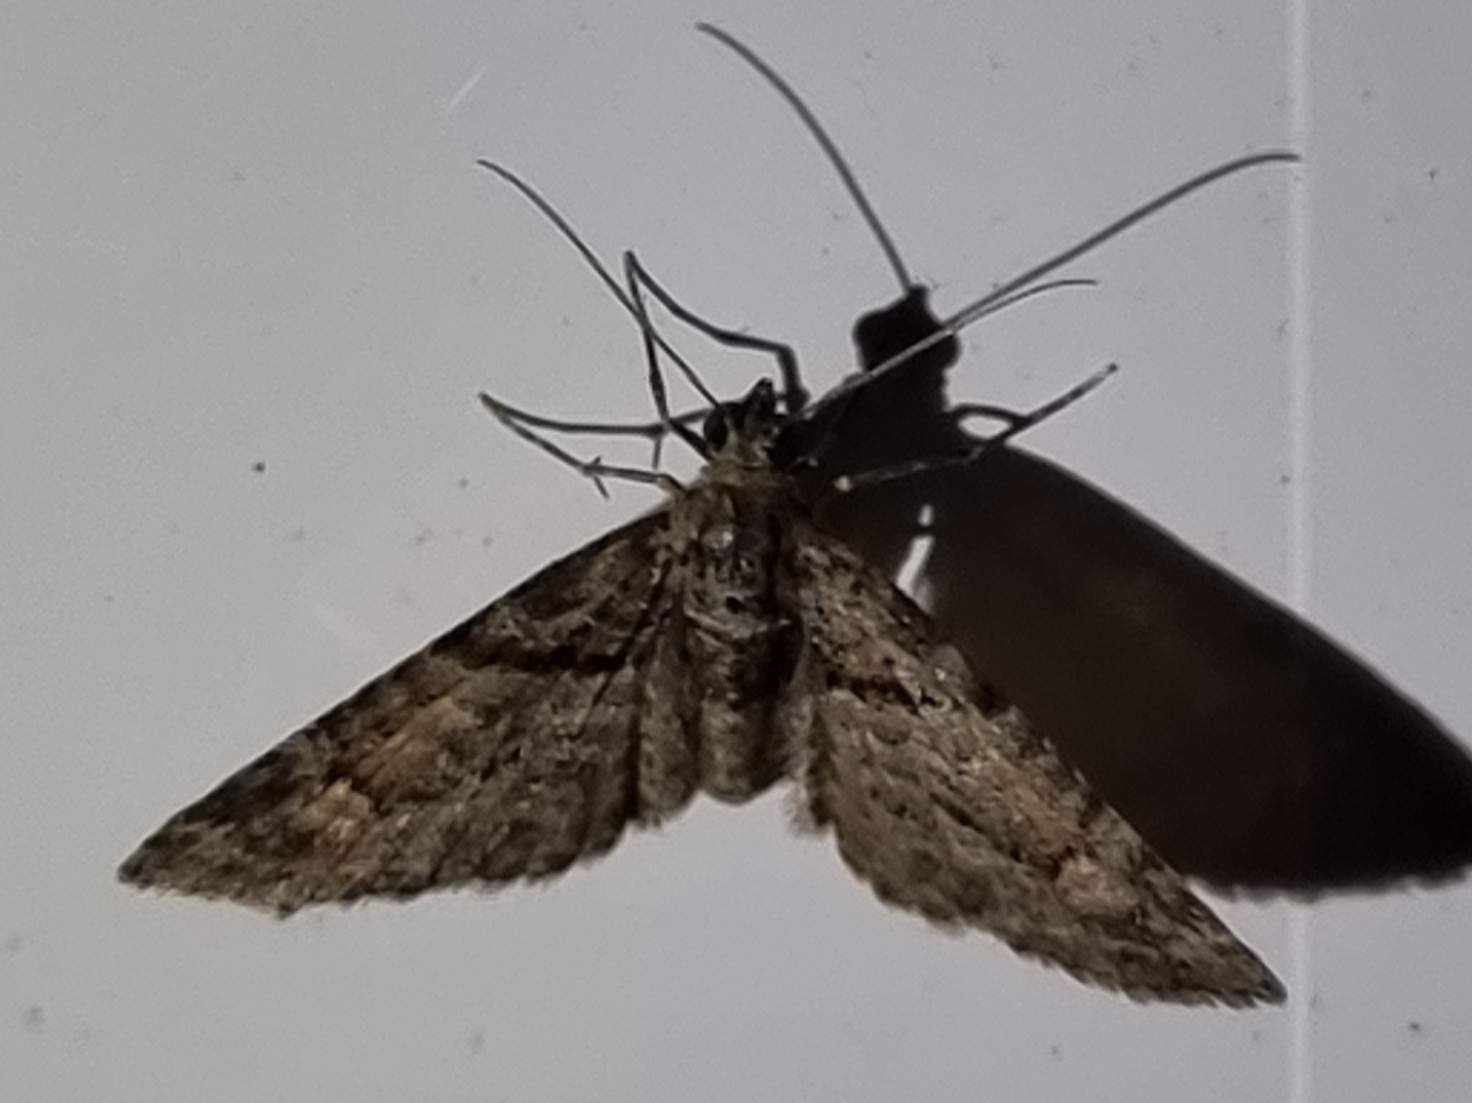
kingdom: Animalia
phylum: Arthropoda
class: Insecta
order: Lepidoptera
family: Geometridae
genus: Phrissogonus
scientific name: Phrissogonus laticostata
